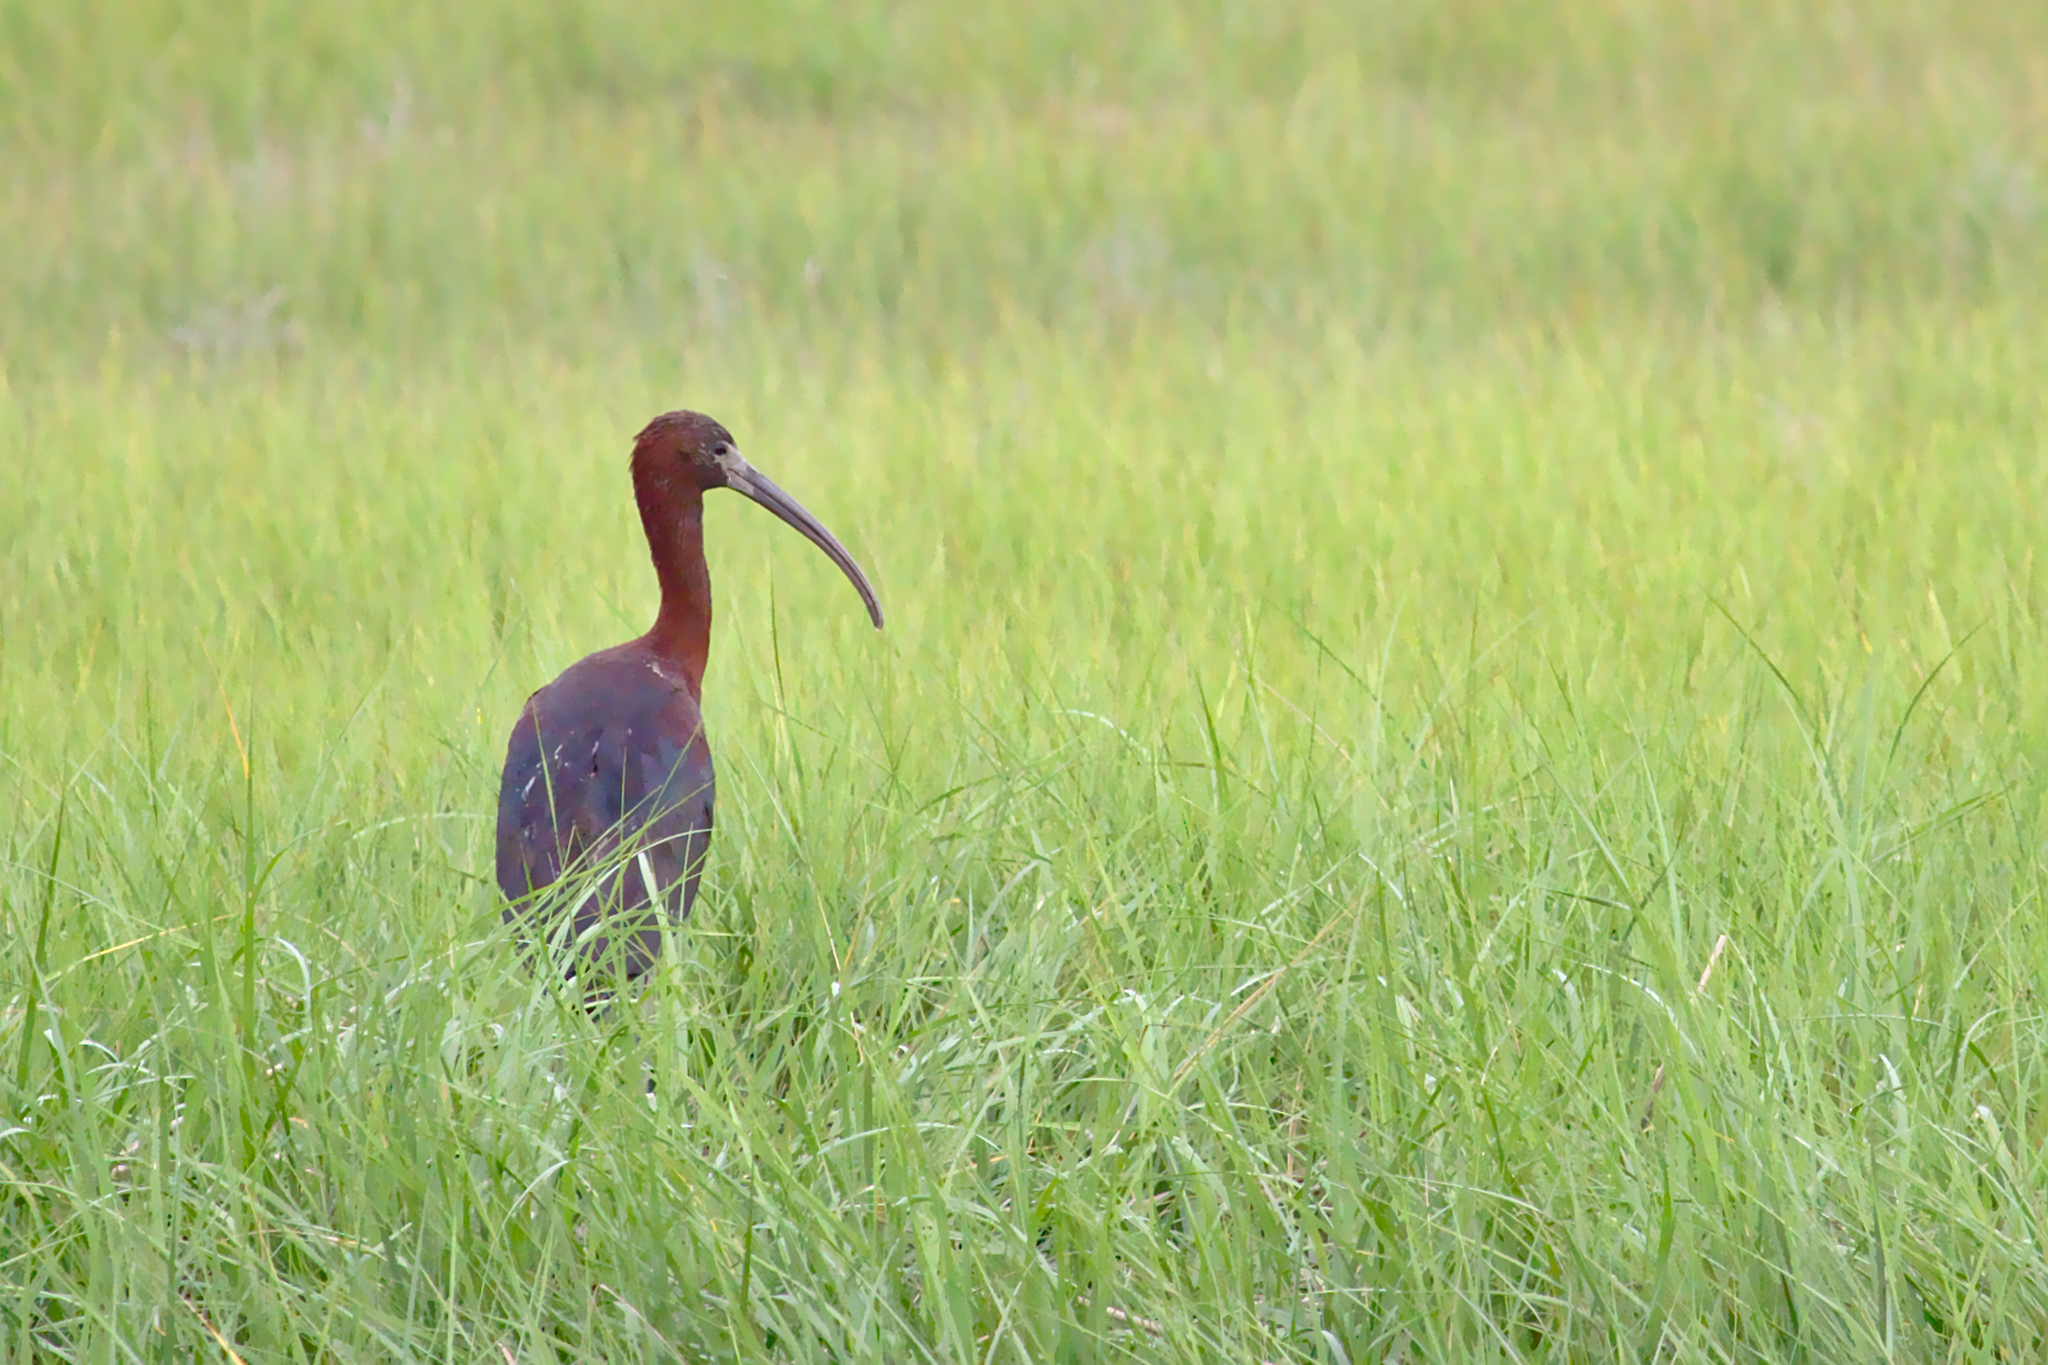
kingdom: Animalia
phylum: Chordata
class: Aves
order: Pelecaniformes
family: Threskiornithidae
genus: Plegadis
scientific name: Plegadis falcinellus
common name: Glossy ibis
